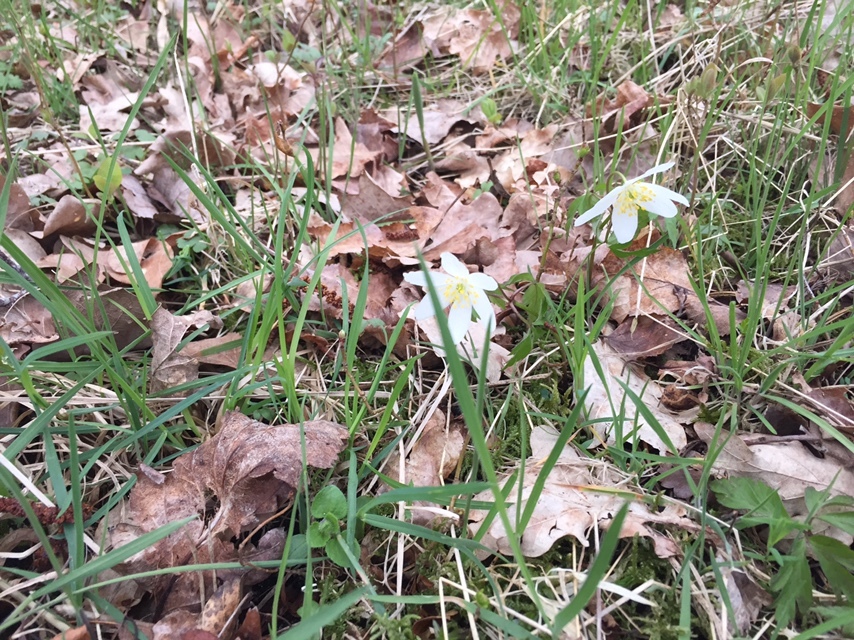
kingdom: Plantae
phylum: Tracheophyta
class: Magnoliopsida
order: Ranunculales
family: Ranunculaceae
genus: Anemone
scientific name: Anemone nemorosa
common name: Wood anemone
